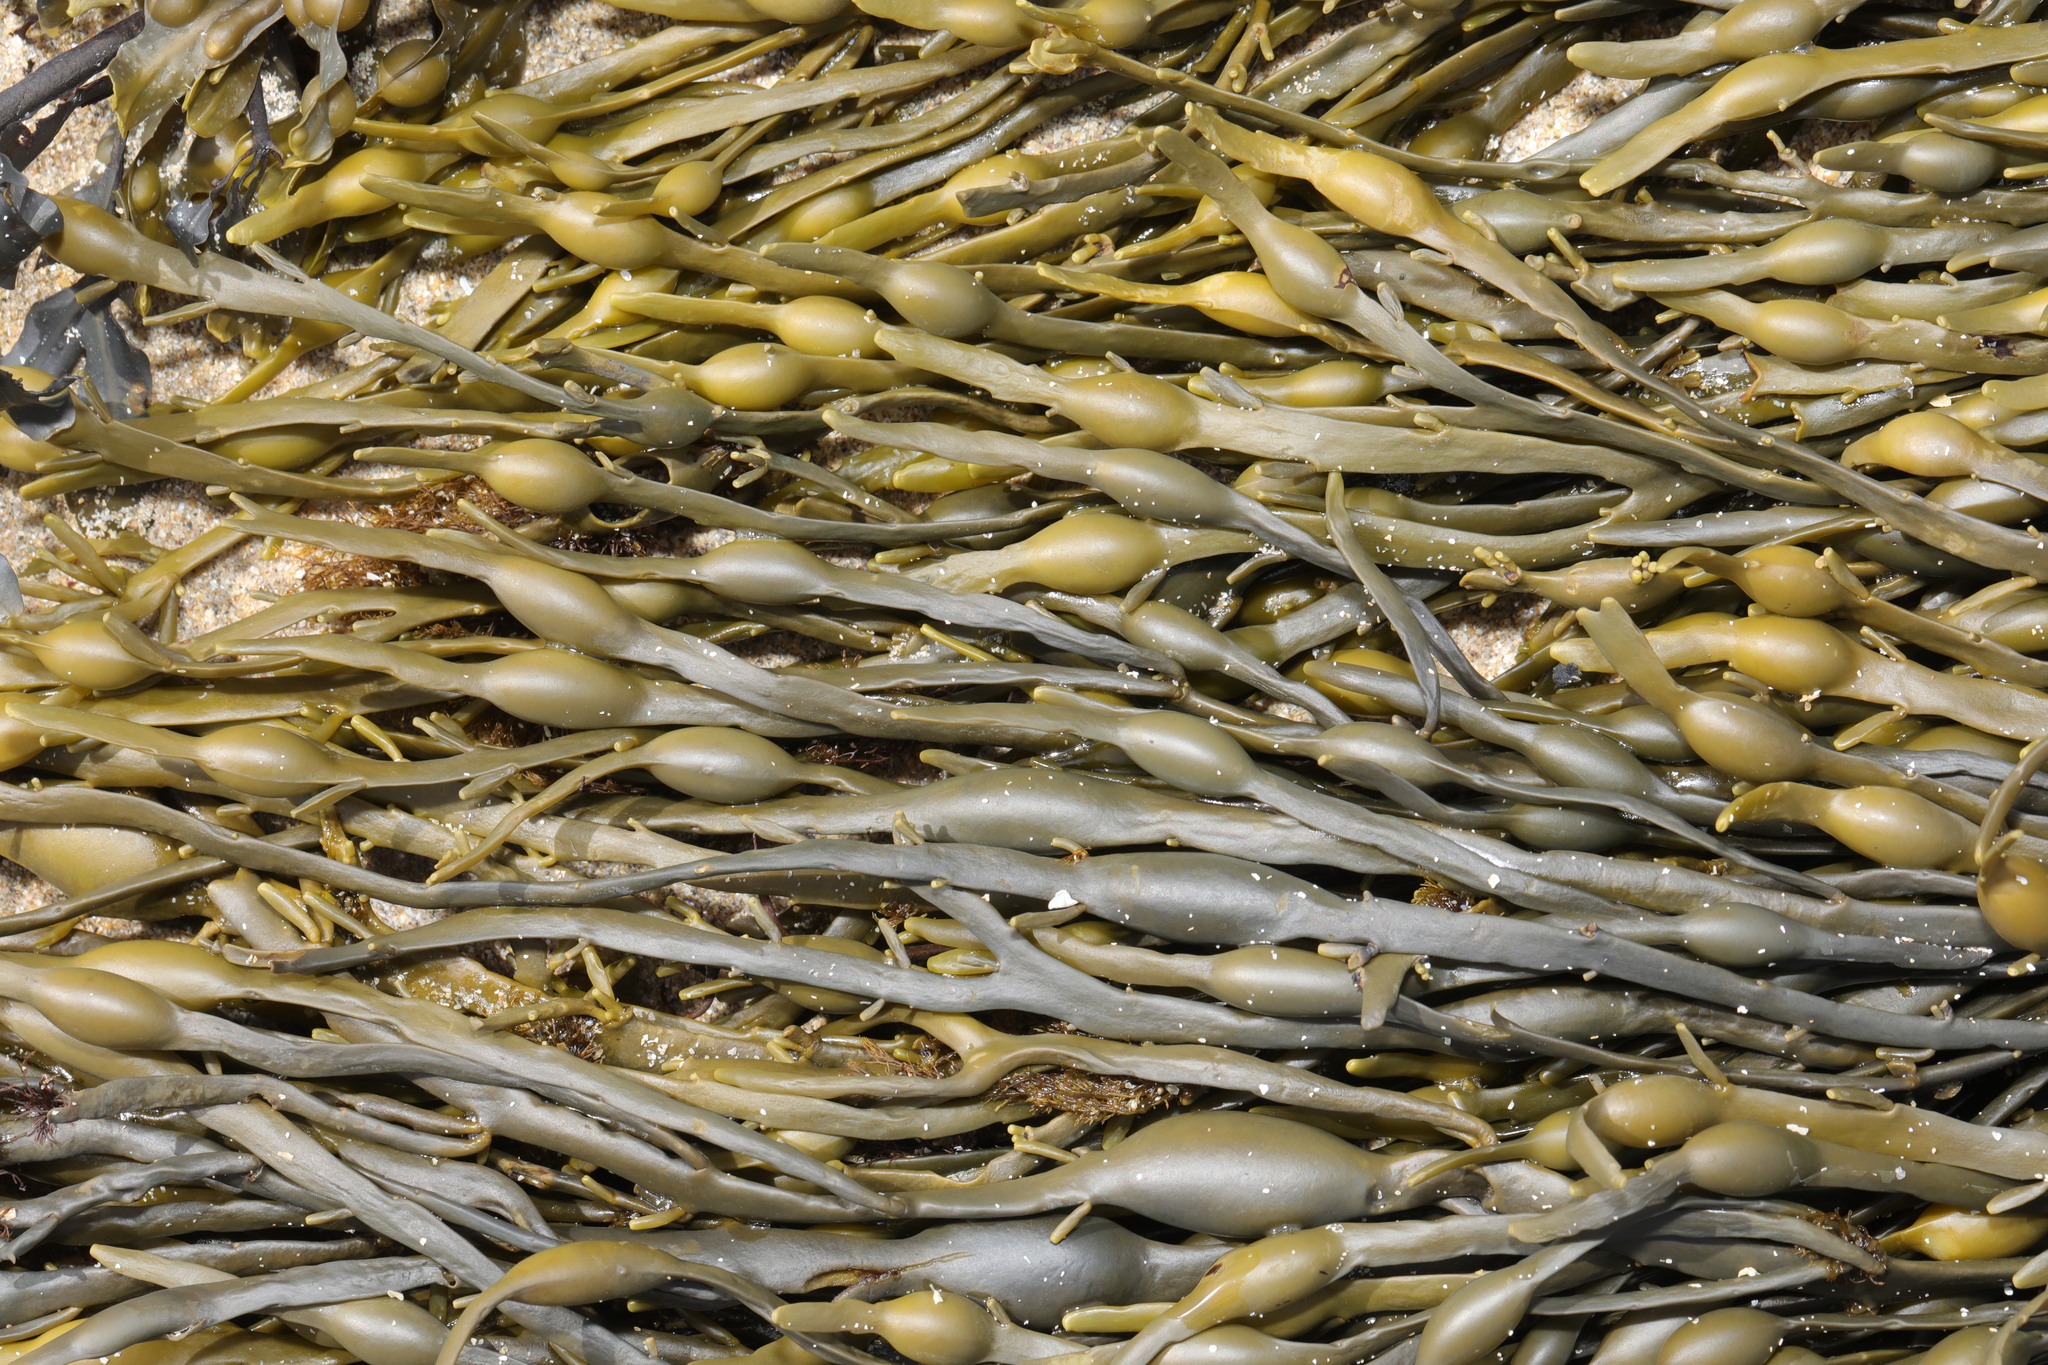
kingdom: Chromista
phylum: Ochrophyta
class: Phaeophyceae
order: Fucales
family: Fucaceae
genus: Ascophyllum
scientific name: Ascophyllum nodosum
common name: Knotted wrack
